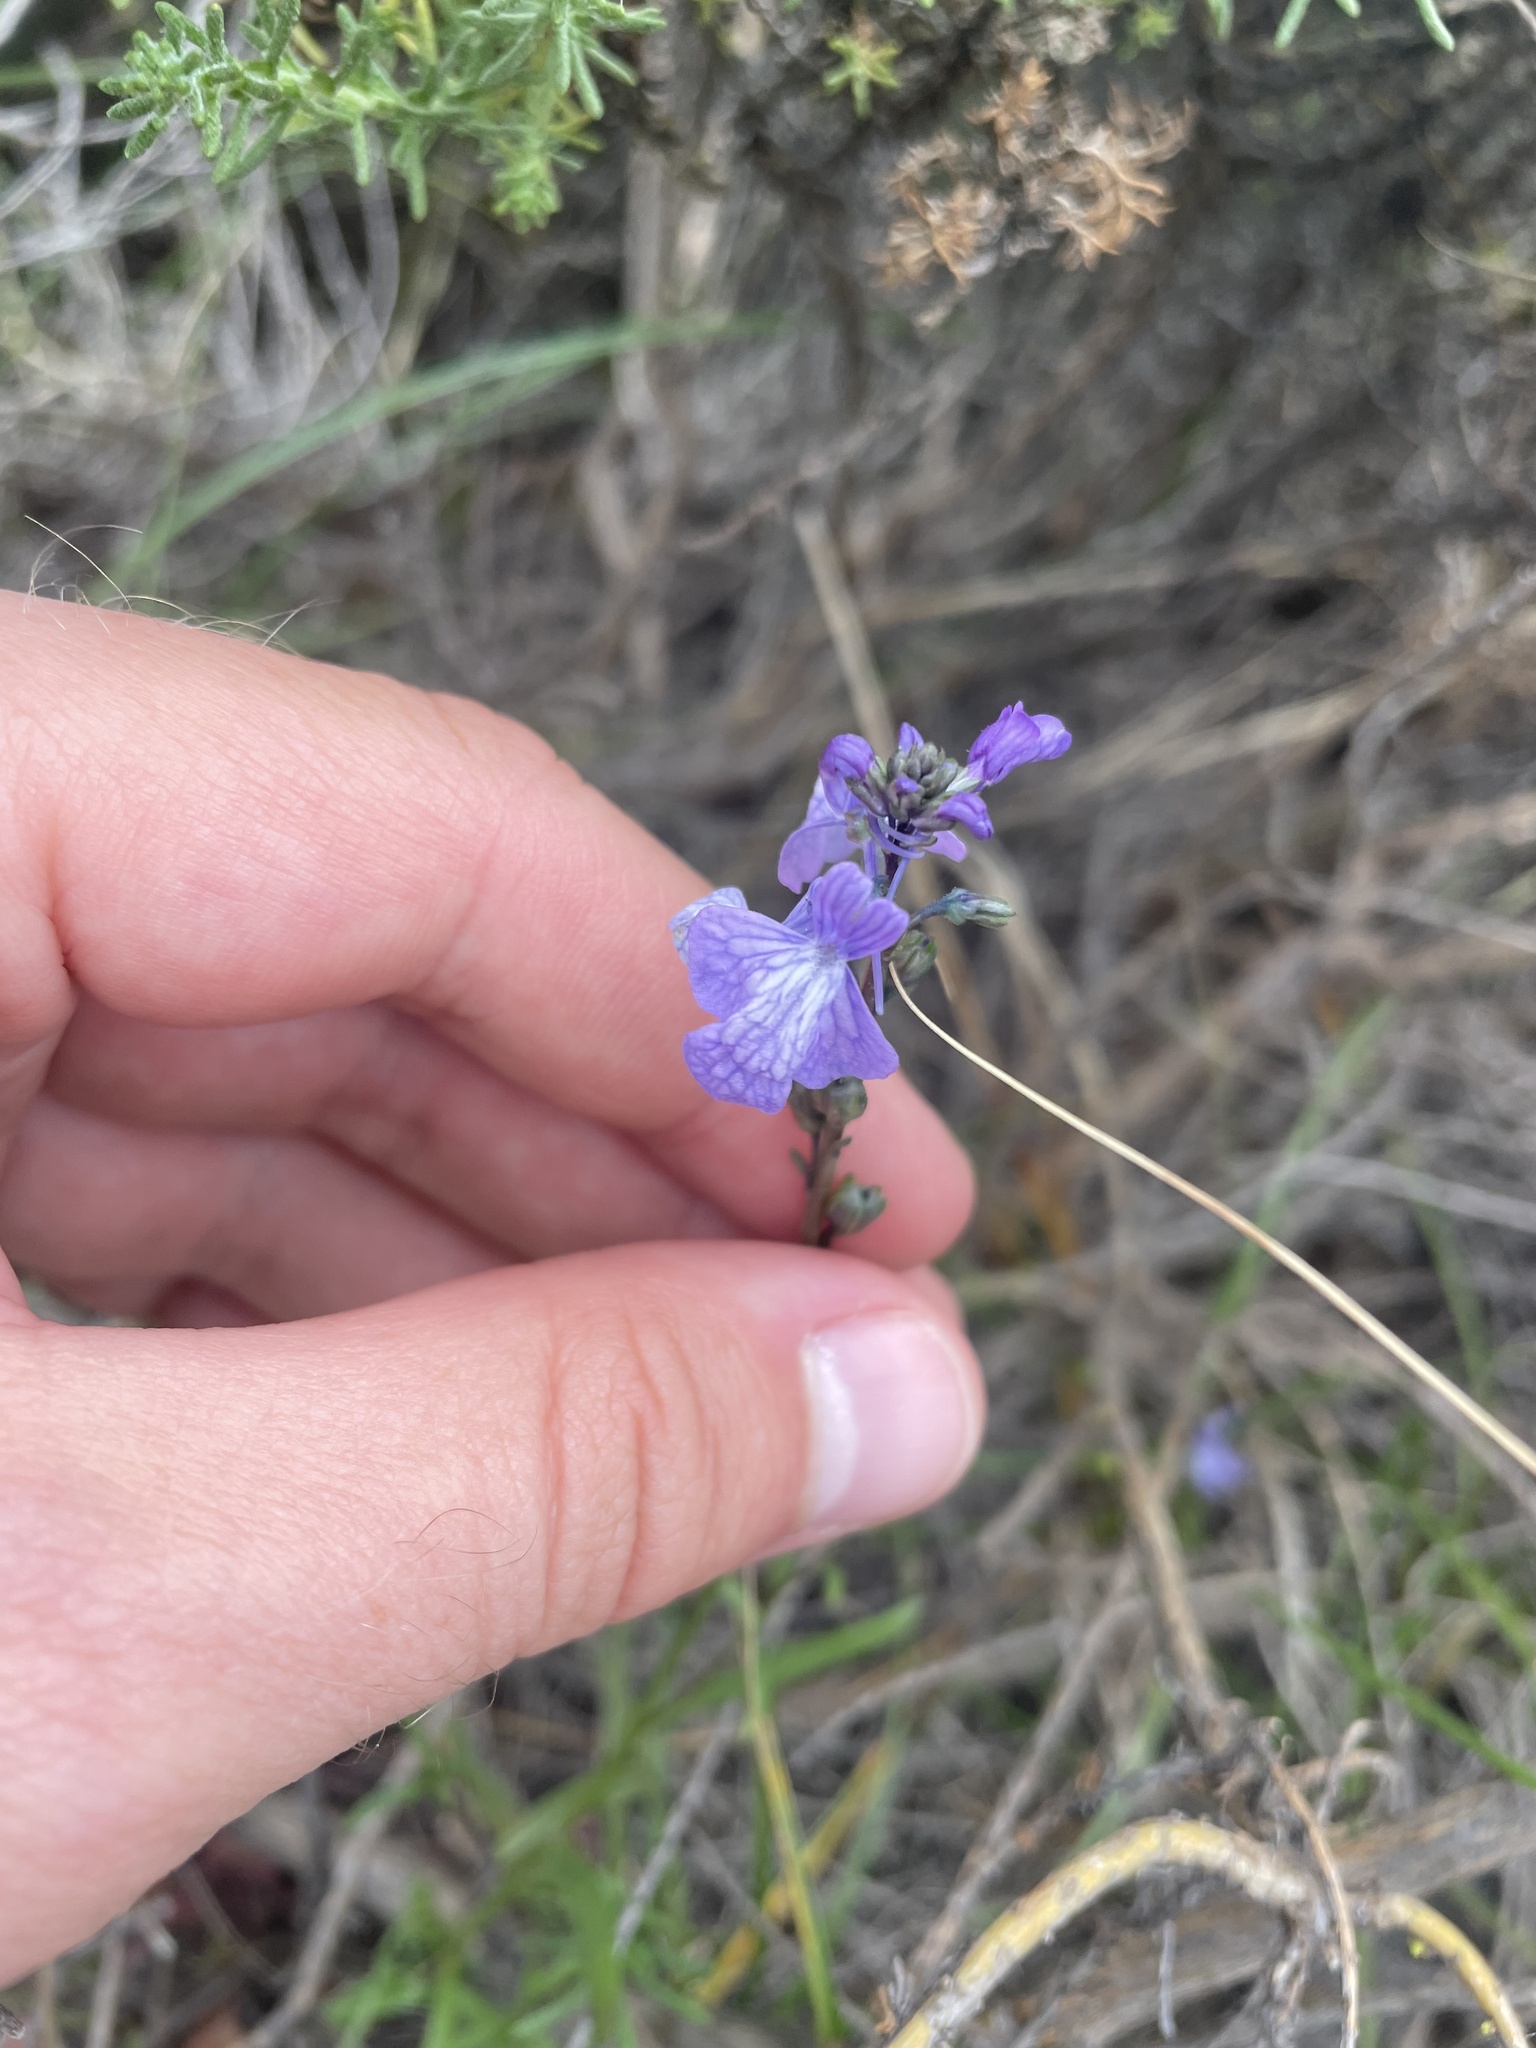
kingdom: Plantae
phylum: Tracheophyta
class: Magnoliopsida
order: Lamiales
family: Plantaginaceae
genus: Nuttallanthus
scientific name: Nuttallanthus texanus
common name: Texas toadflax
